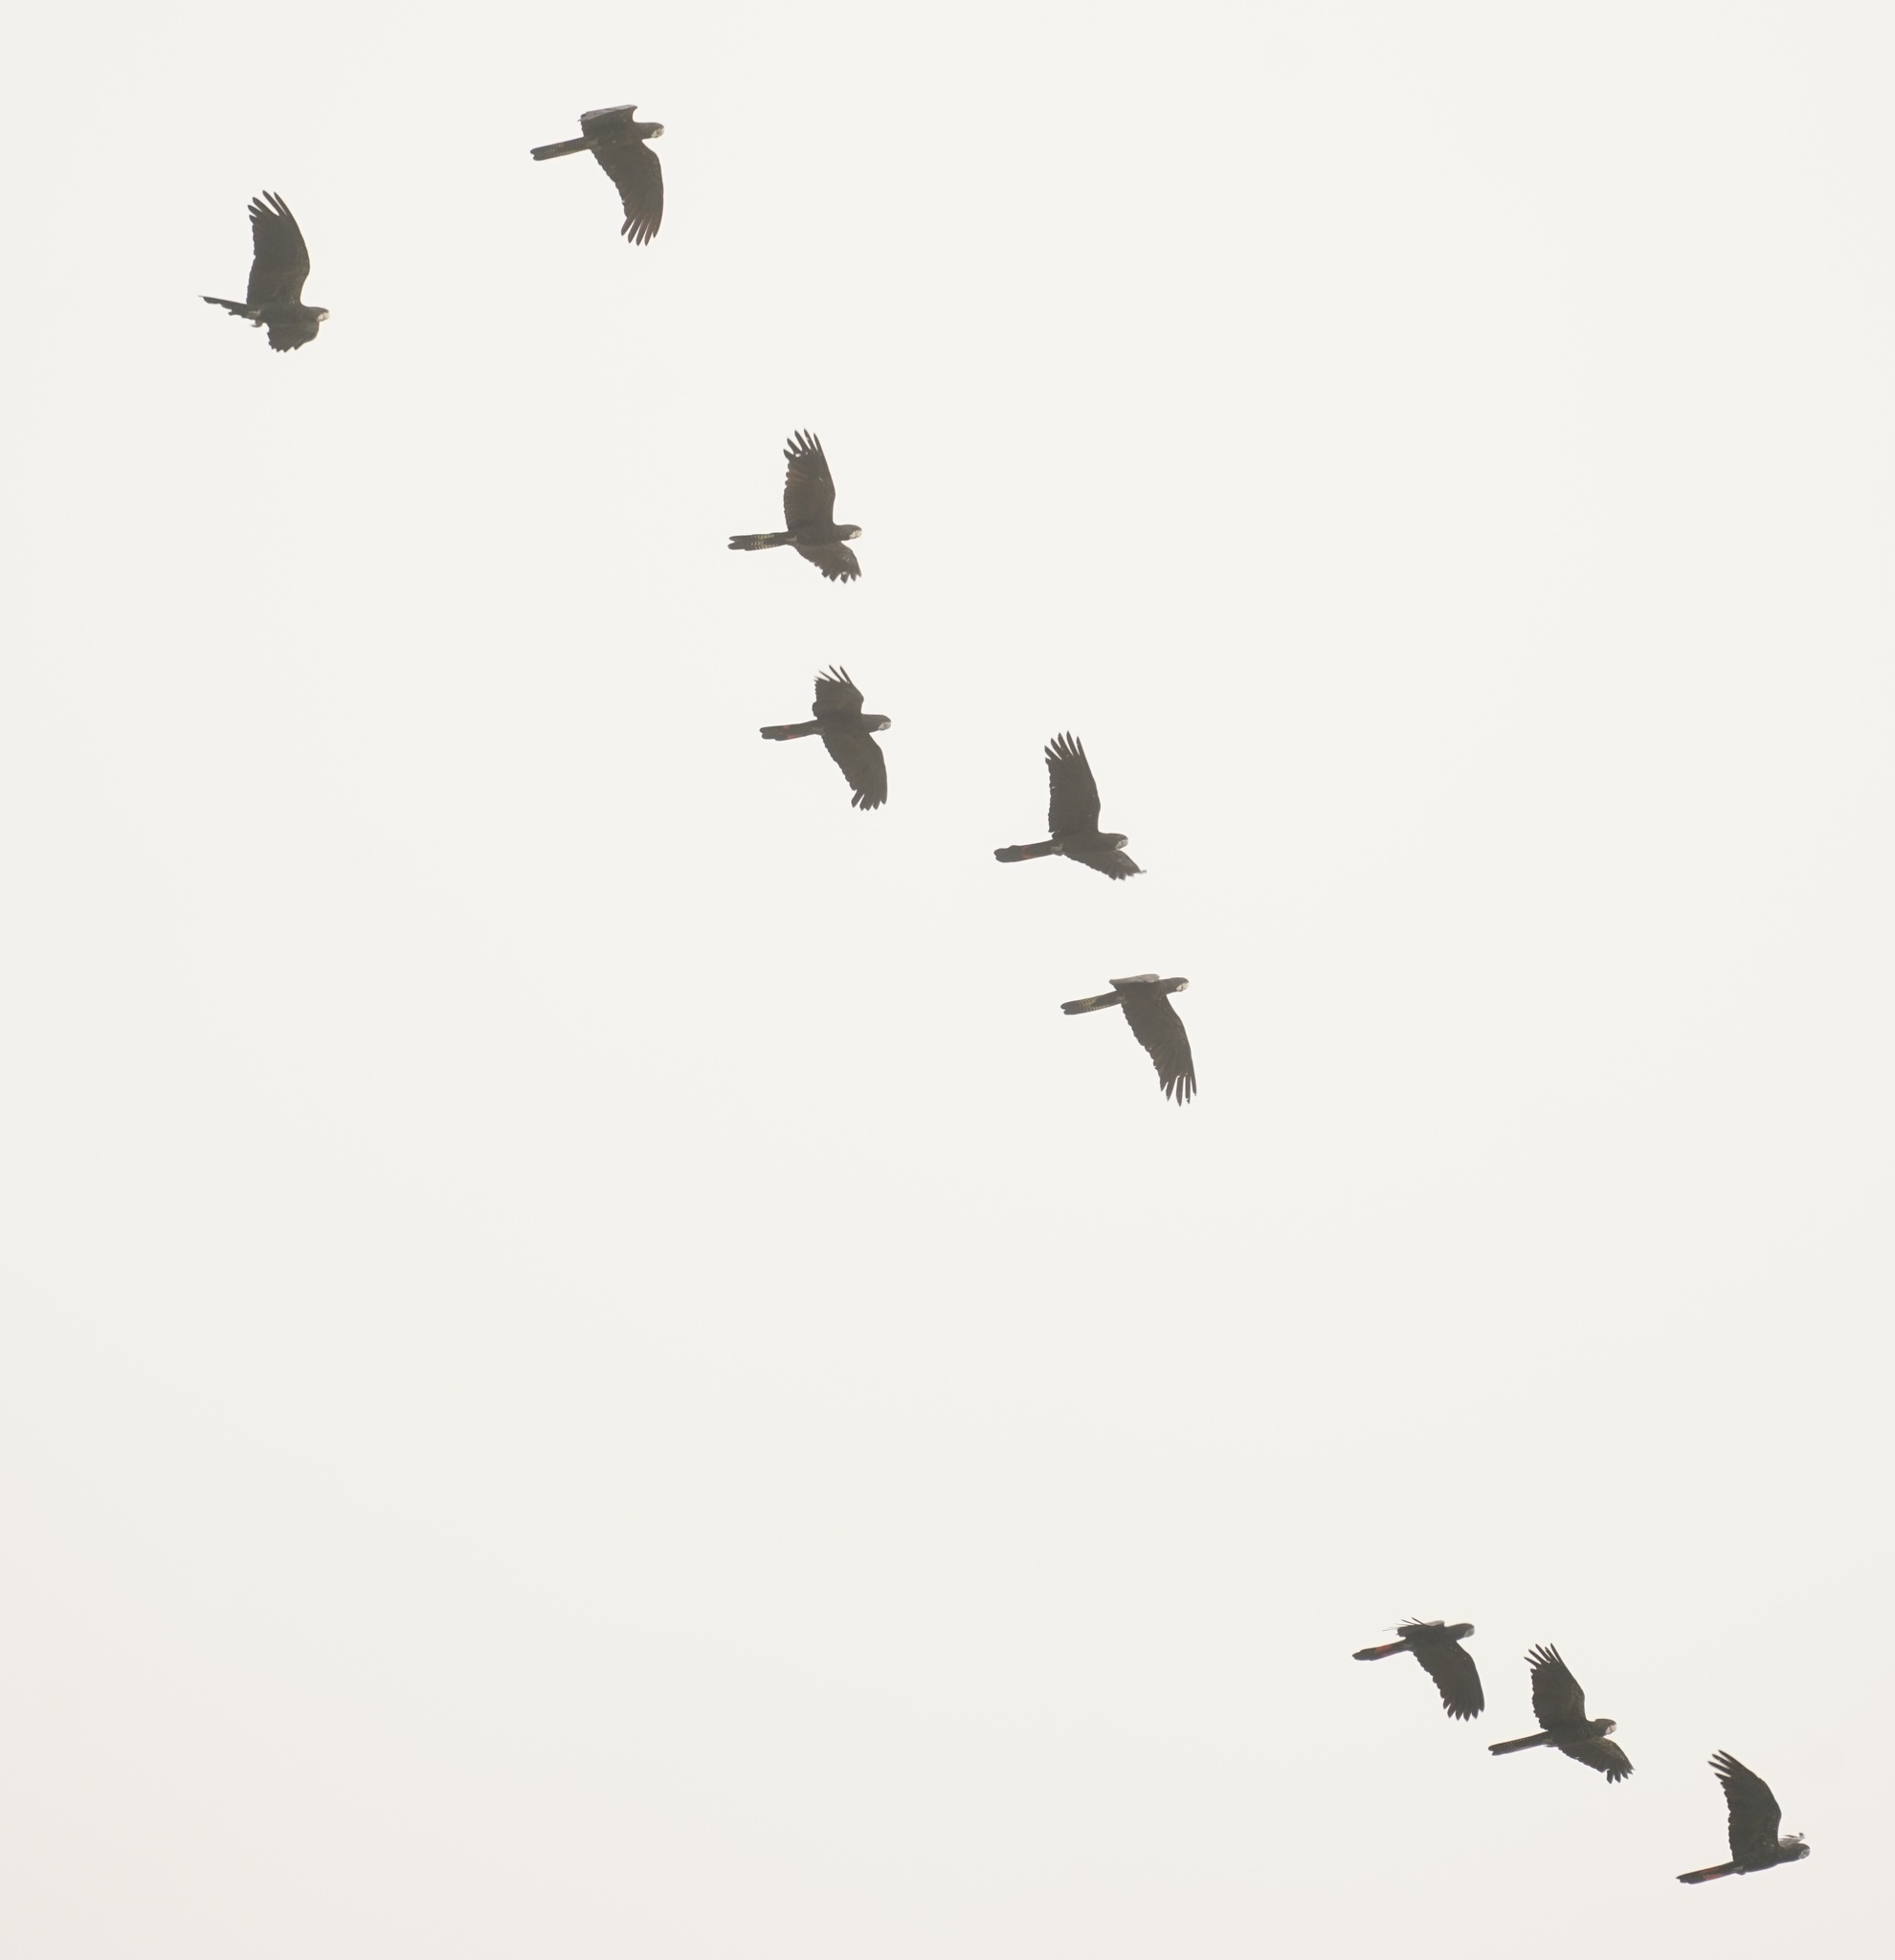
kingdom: Animalia
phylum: Chordata
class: Aves
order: Psittaciformes
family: Psittacidae
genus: Calyptorhynchus
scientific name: Calyptorhynchus banksii
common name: Red-tailed black cockatoo
